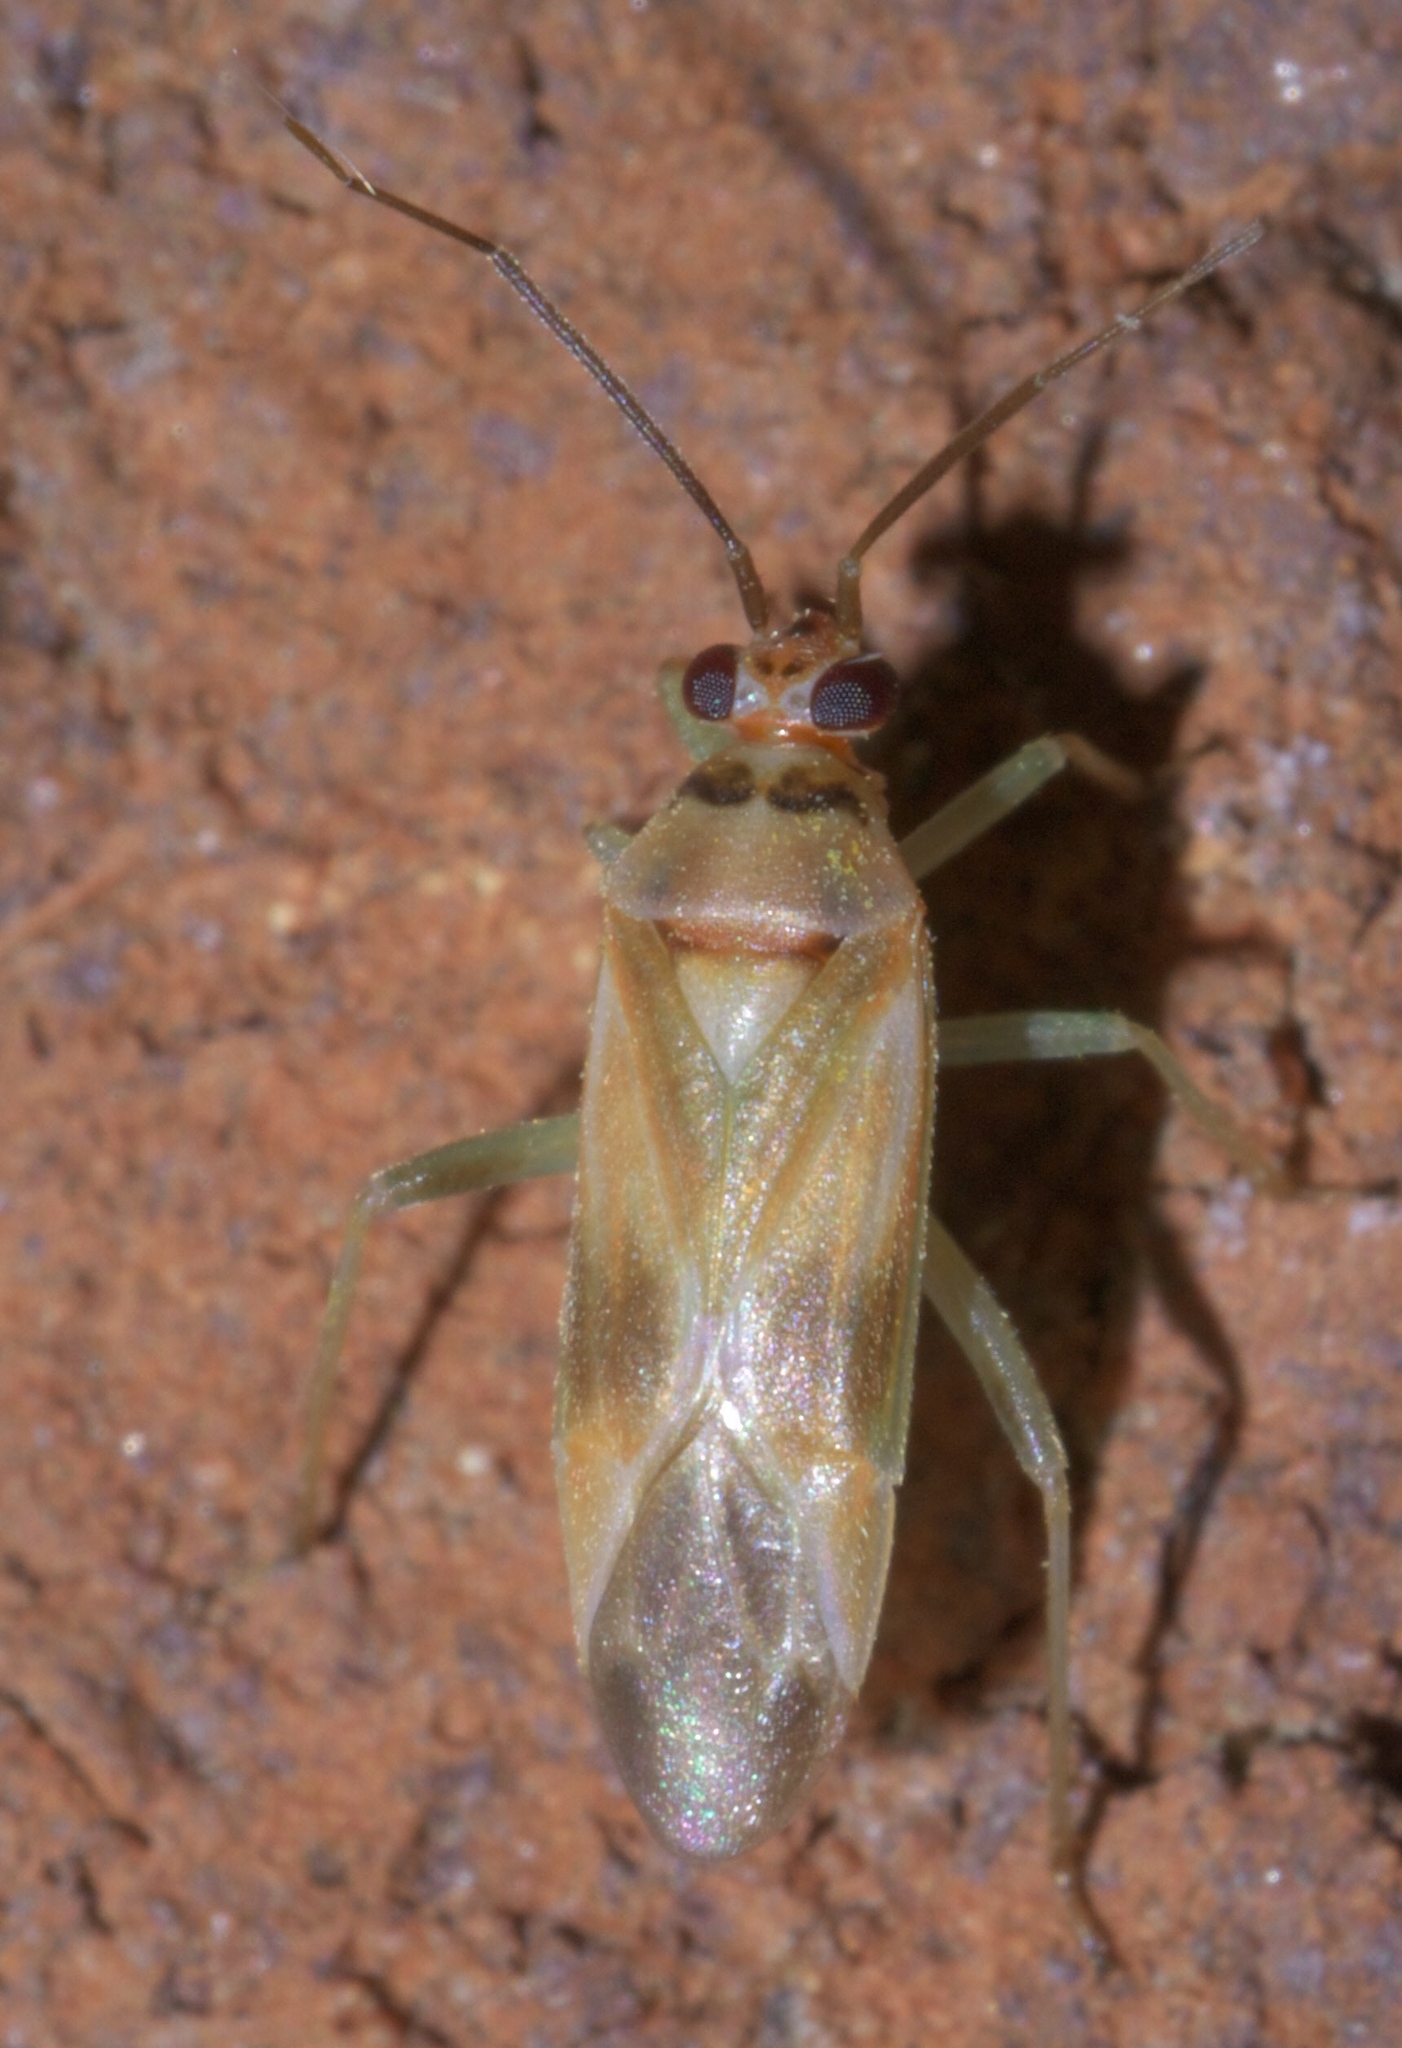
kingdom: Animalia
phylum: Arthropoda
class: Insecta
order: Hemiptera
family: Miridae
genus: Orthotylus
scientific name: Orthotylus ornatus
